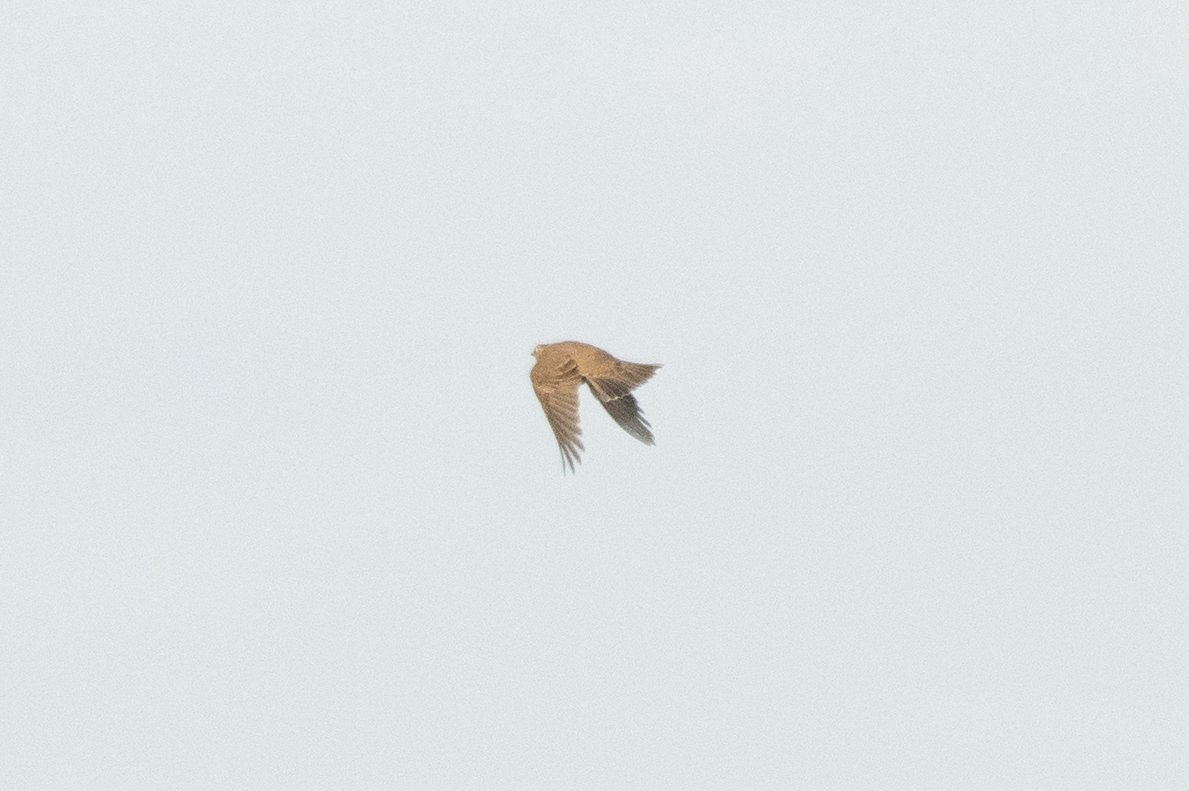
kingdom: Animalia
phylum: Chordata
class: Aves
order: Passeriformes
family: Turdidae
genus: Turdus
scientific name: Turdus viscivorus
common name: Mistle thrush
